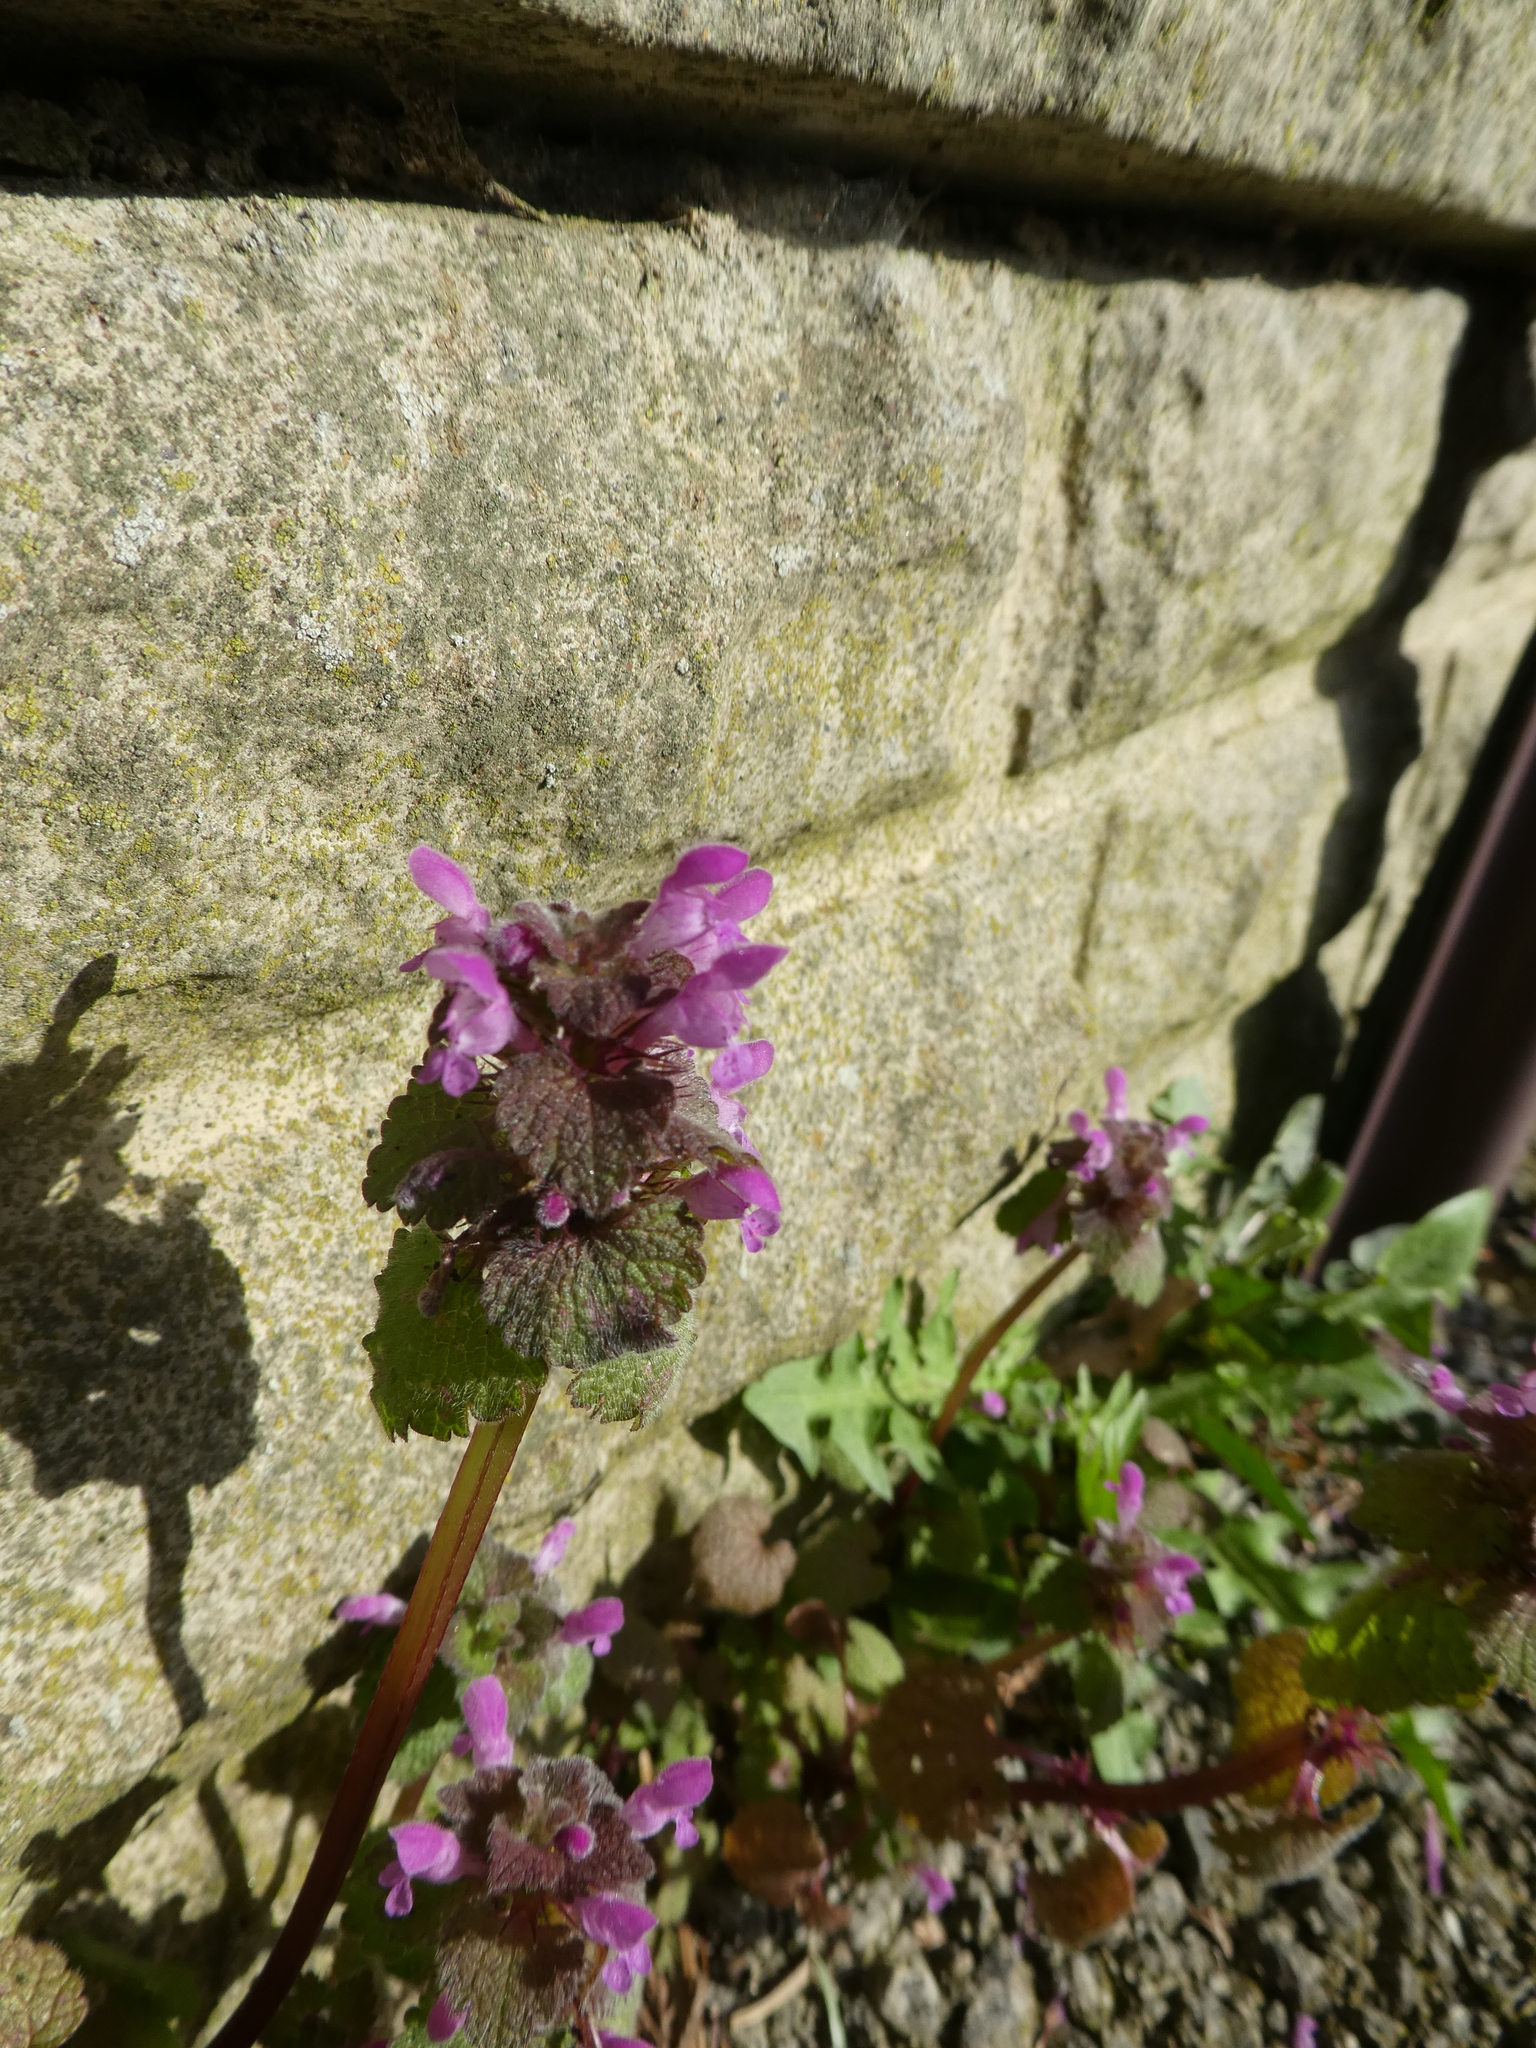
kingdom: Plantae
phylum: Tracheophyta
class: Magnoliopsida
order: Lamiales
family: Lamiaceae
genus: Lamium
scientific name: Lamium purpureum
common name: Red dead-nettle
